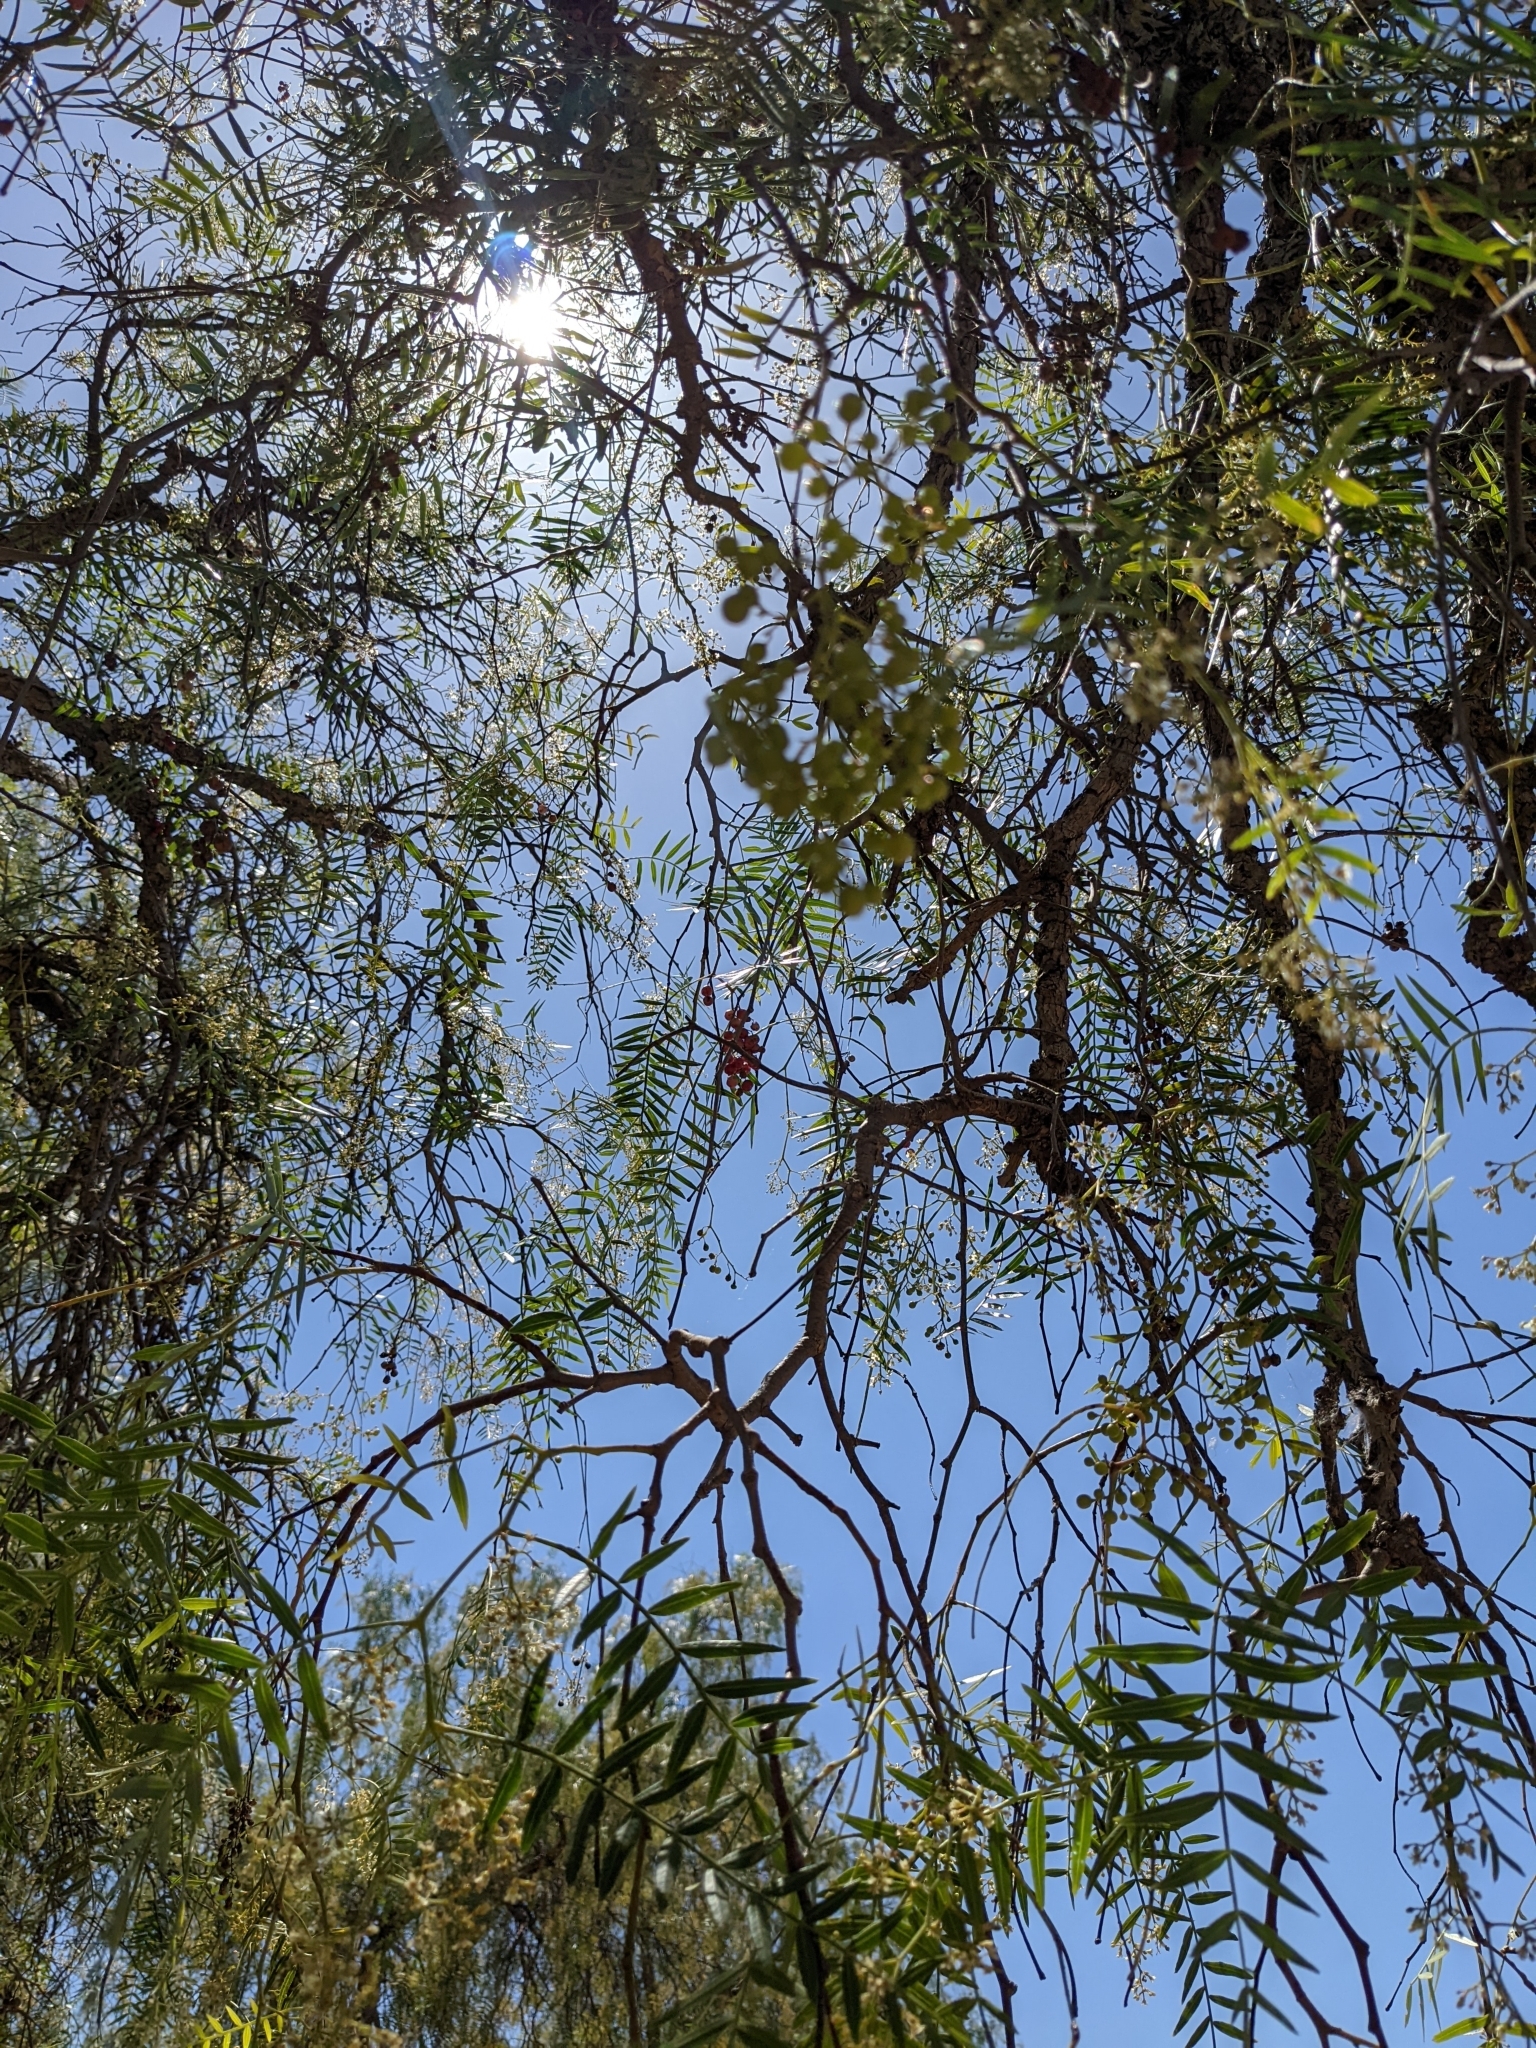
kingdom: Plantae
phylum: Tracheophyta
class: Magnoliopsida
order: Sapindales
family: Anacardiaceae
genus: Schinus
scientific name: Schinus molle
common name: Peruvian peppertree
